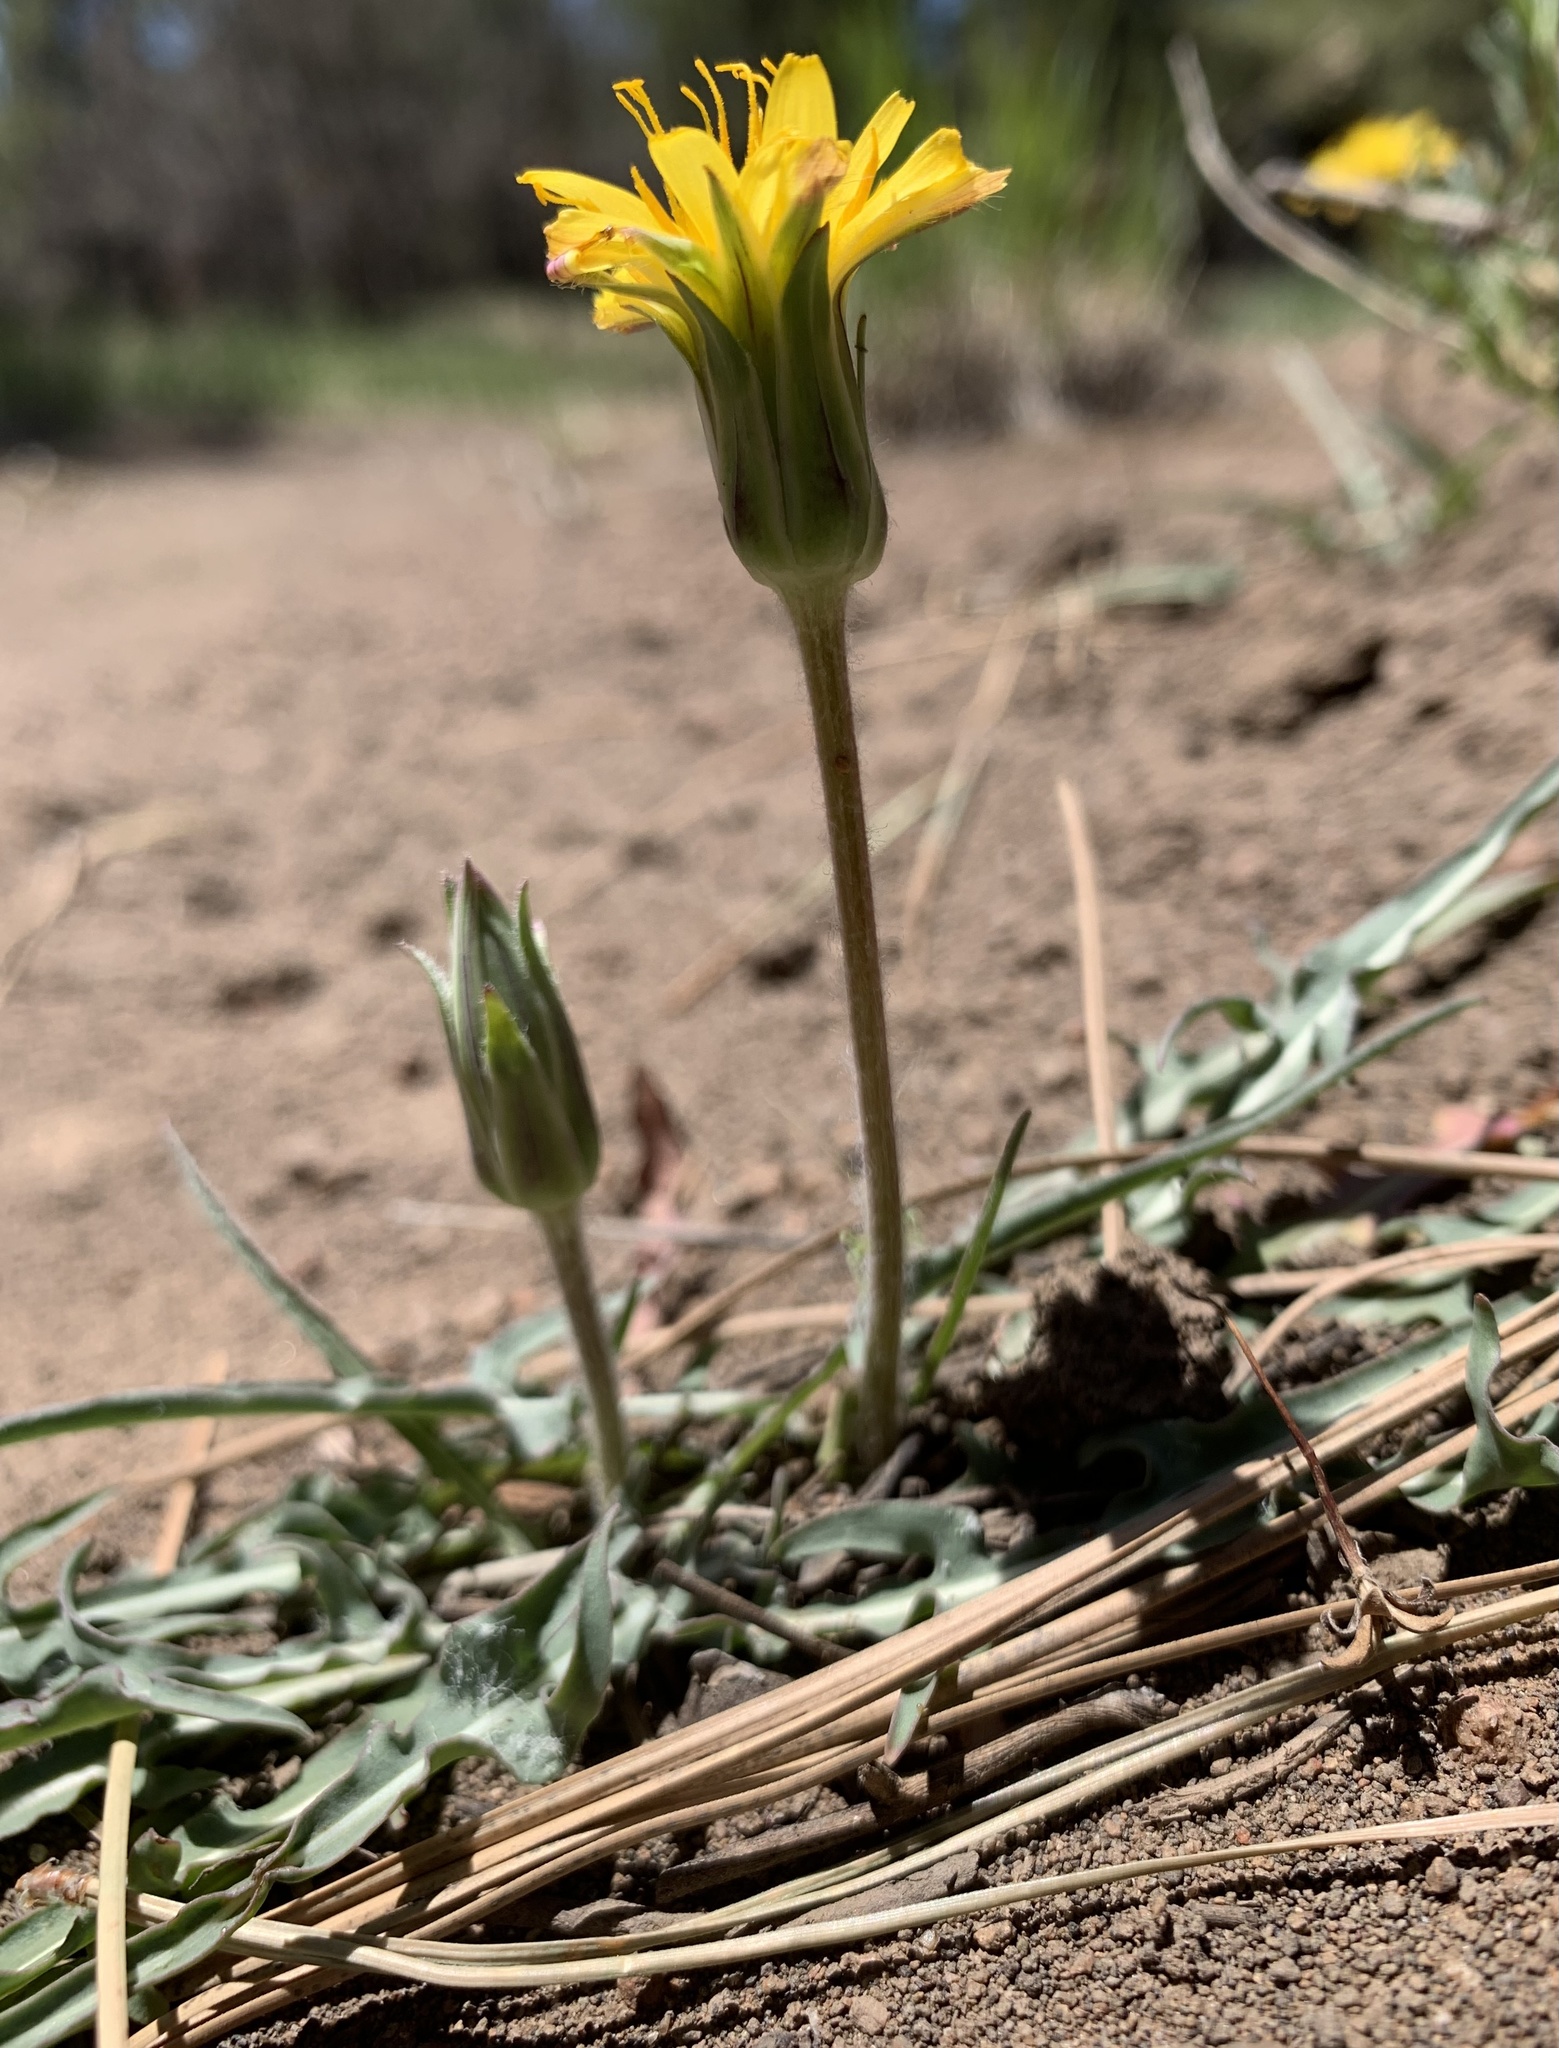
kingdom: Plantae
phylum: Tracheophyta
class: Magnoliopsida
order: Asterales
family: Asteraceae
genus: Agoseris
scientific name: Agoseris parviflora
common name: Steppe agoseris
